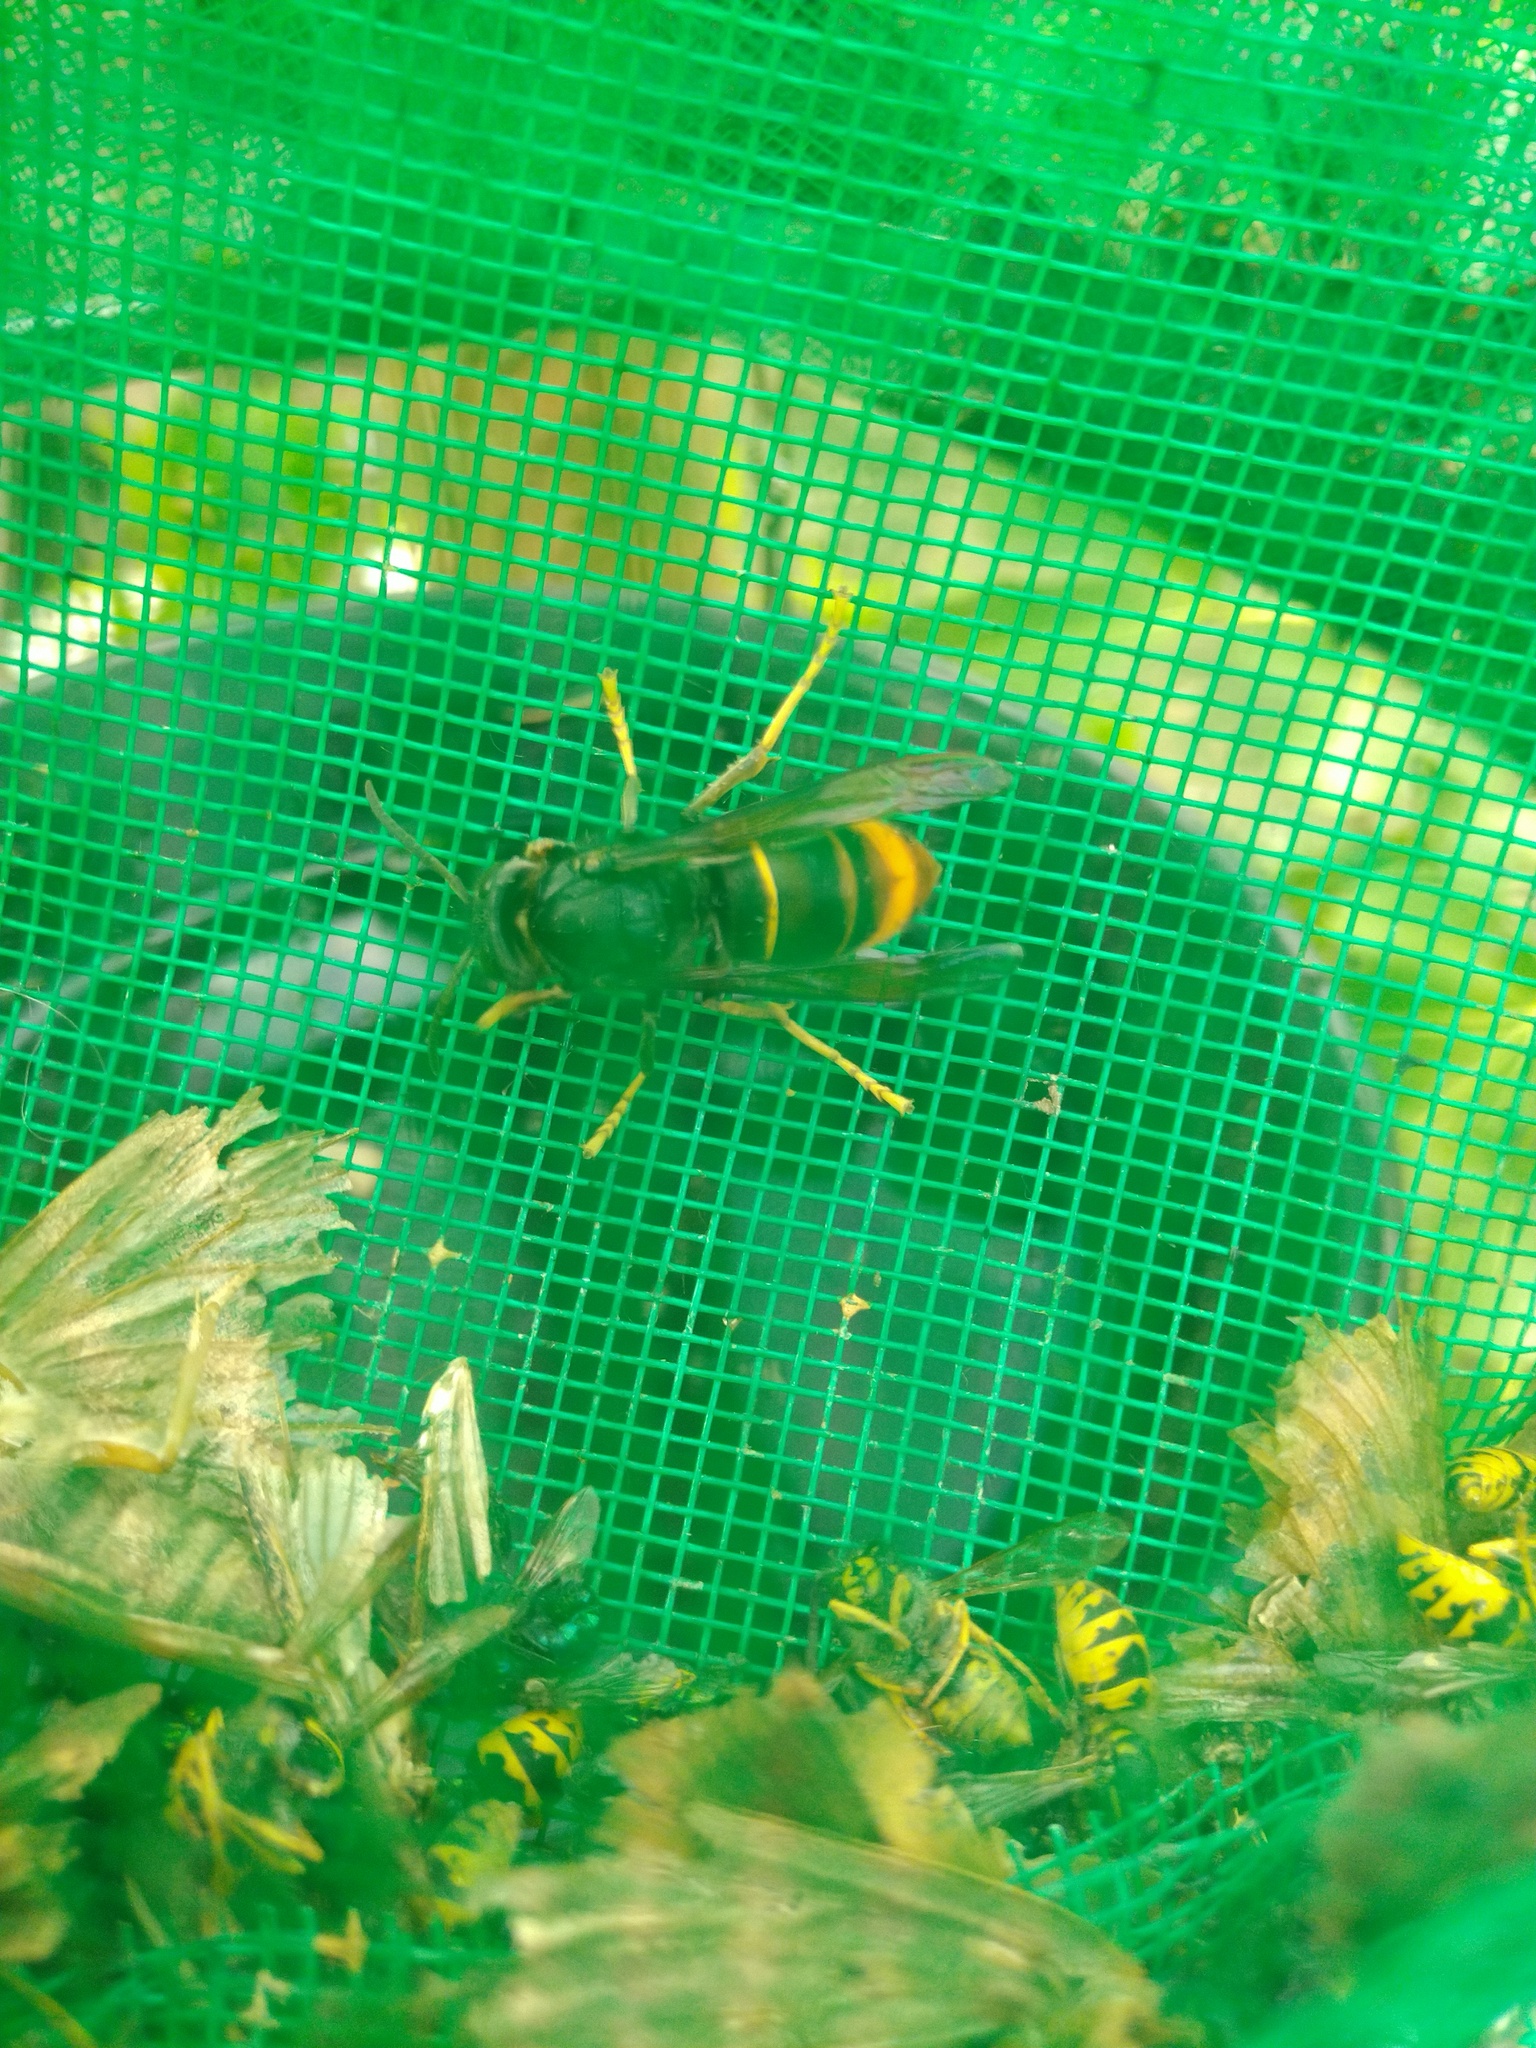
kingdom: Animalia
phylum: Arthropoda
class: Insecta
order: Hymenoptera
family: Vespidae
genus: Vespa
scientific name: Vespa velutina
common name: Asian hornet
